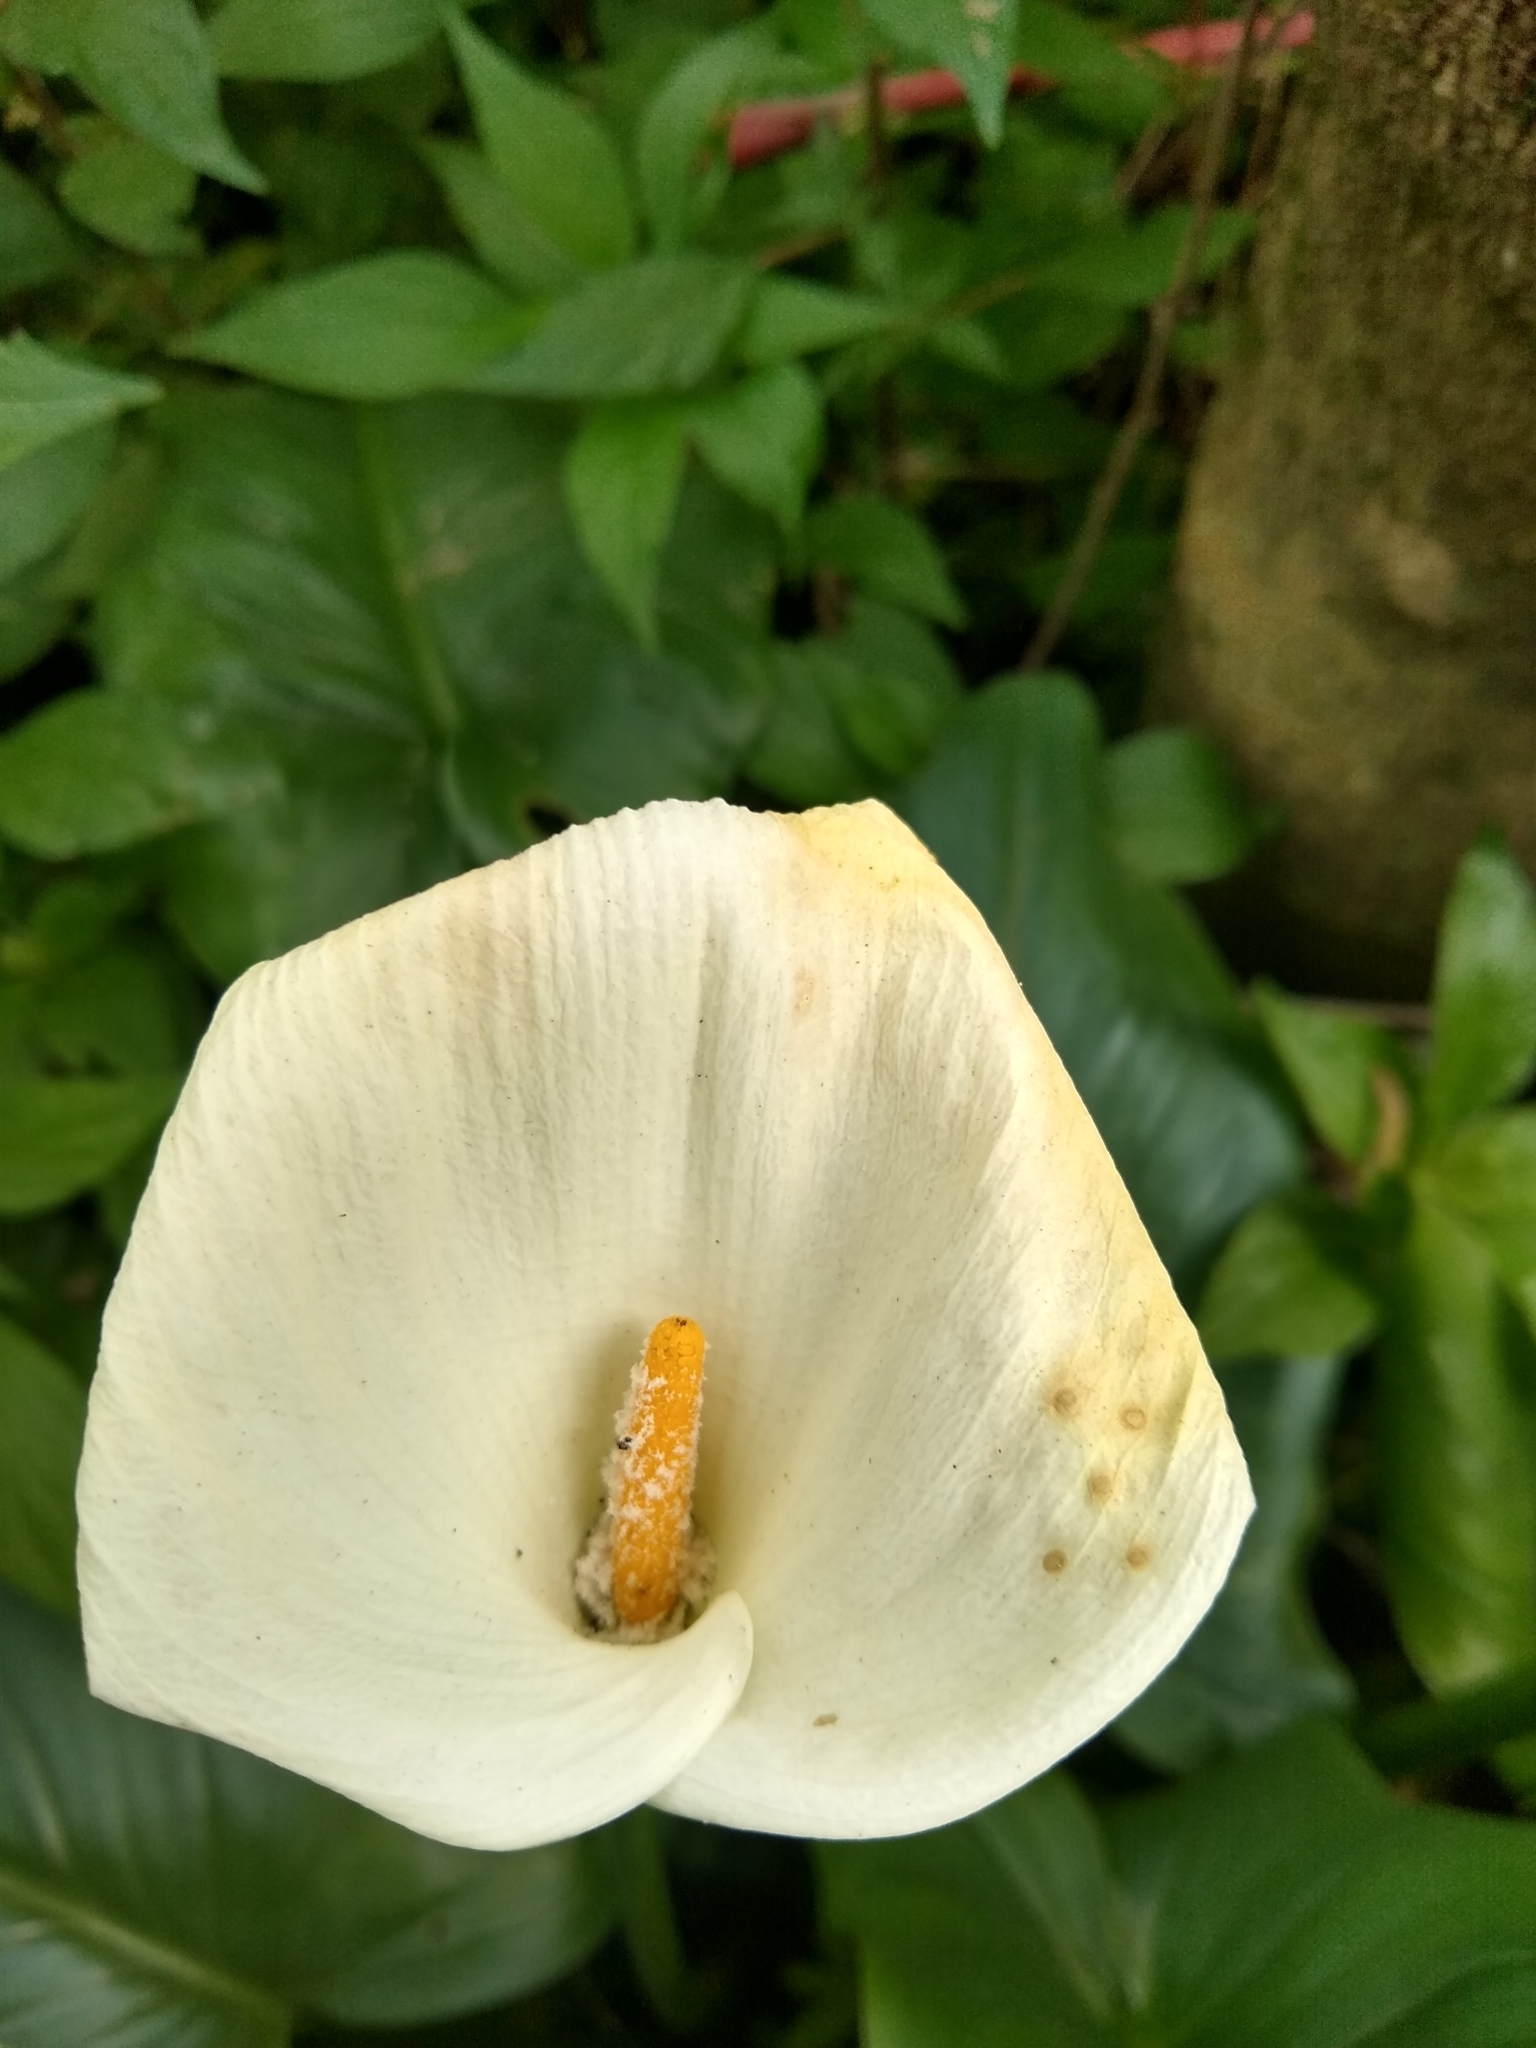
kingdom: Plantae
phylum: Tracheophyta
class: Liliopsida
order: Alismatales
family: Araceae
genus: Zantedeschia
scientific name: Zantedeschia aethiopica
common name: Altar-lily
